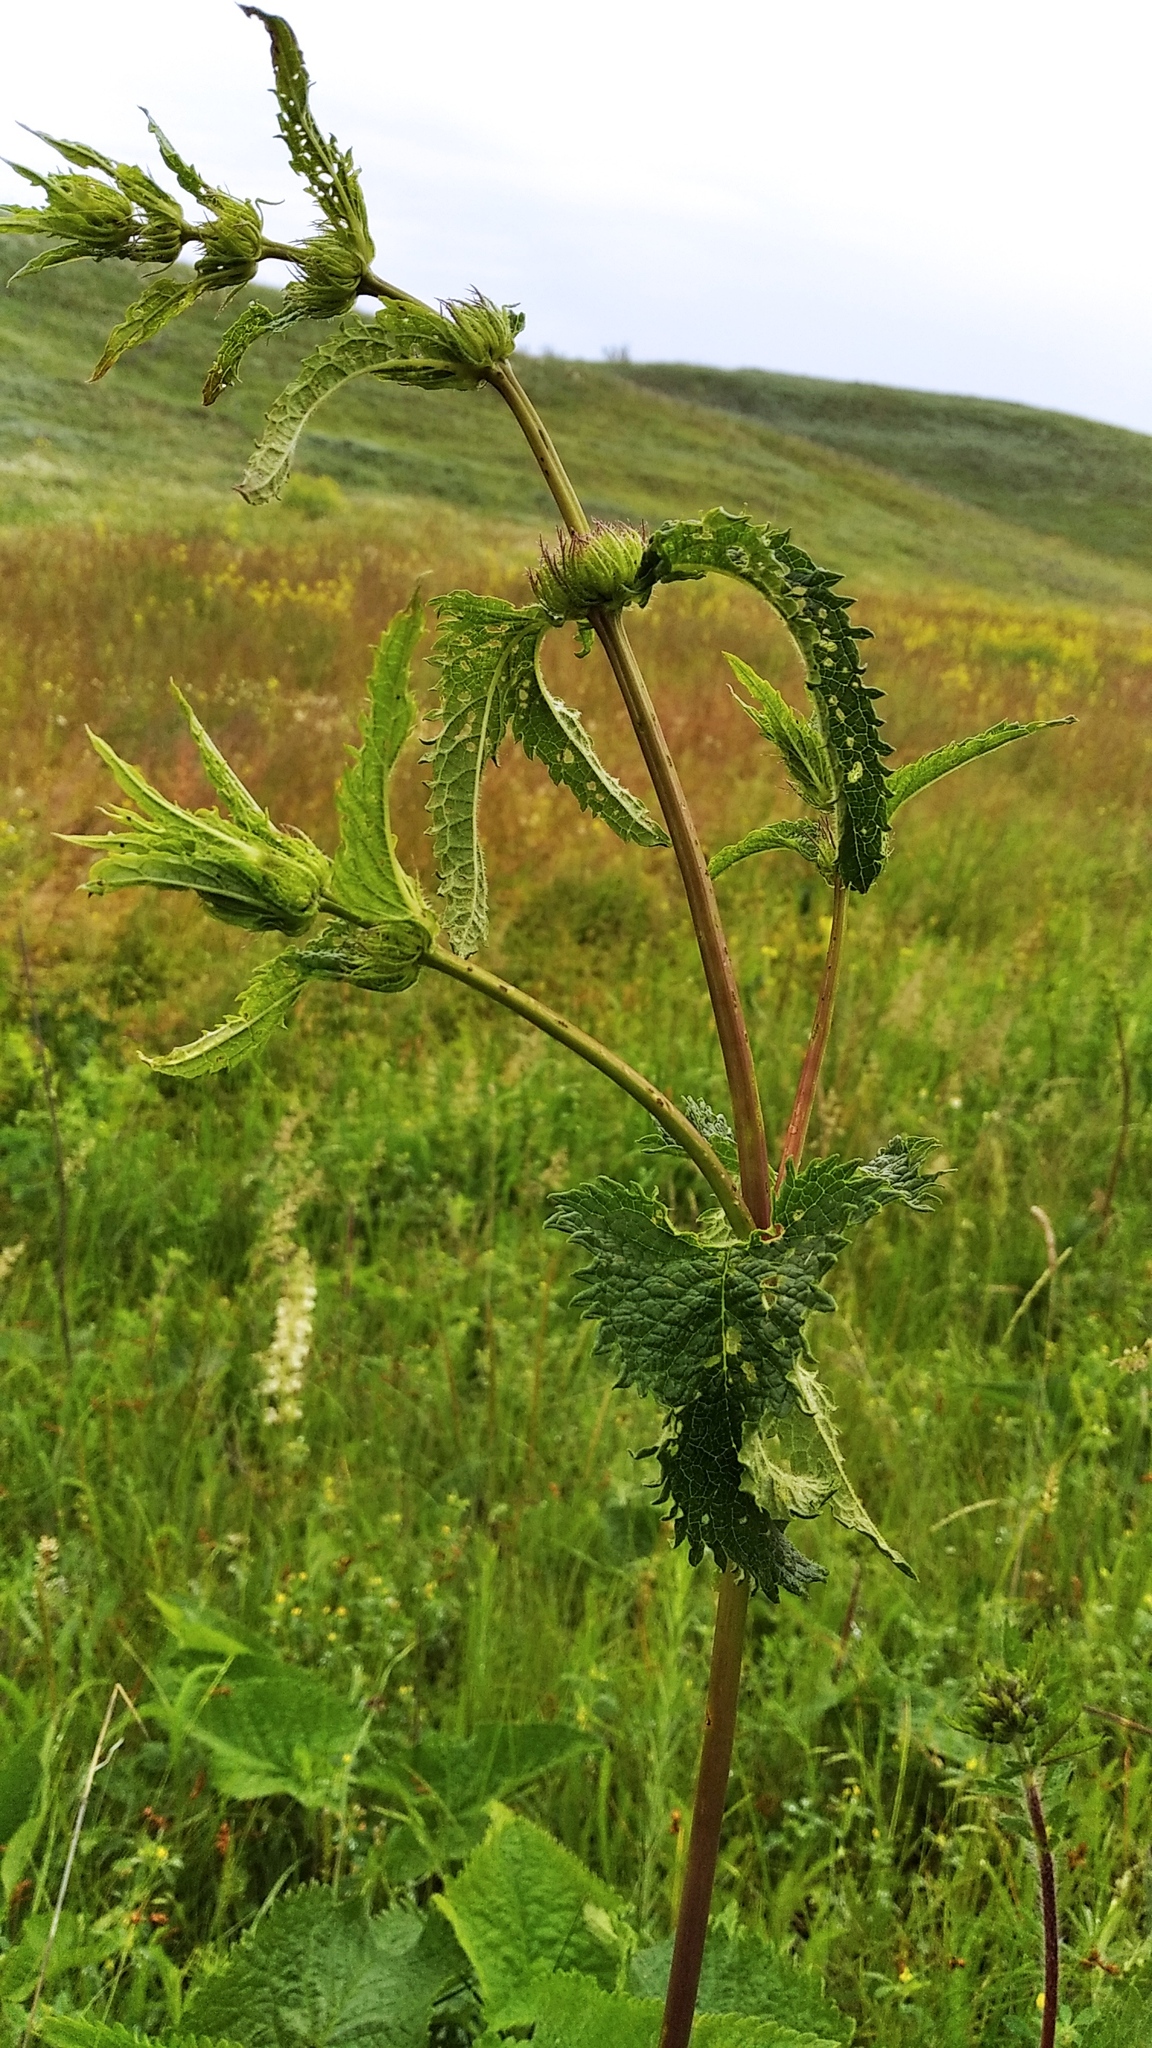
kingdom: Plantae
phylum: Tracheophyta
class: Magnoliopsida
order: Lamiales
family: Lamiaceae
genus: Phlomoides
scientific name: Phlomoides tuberosa
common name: Tuberous jerusalem sage
